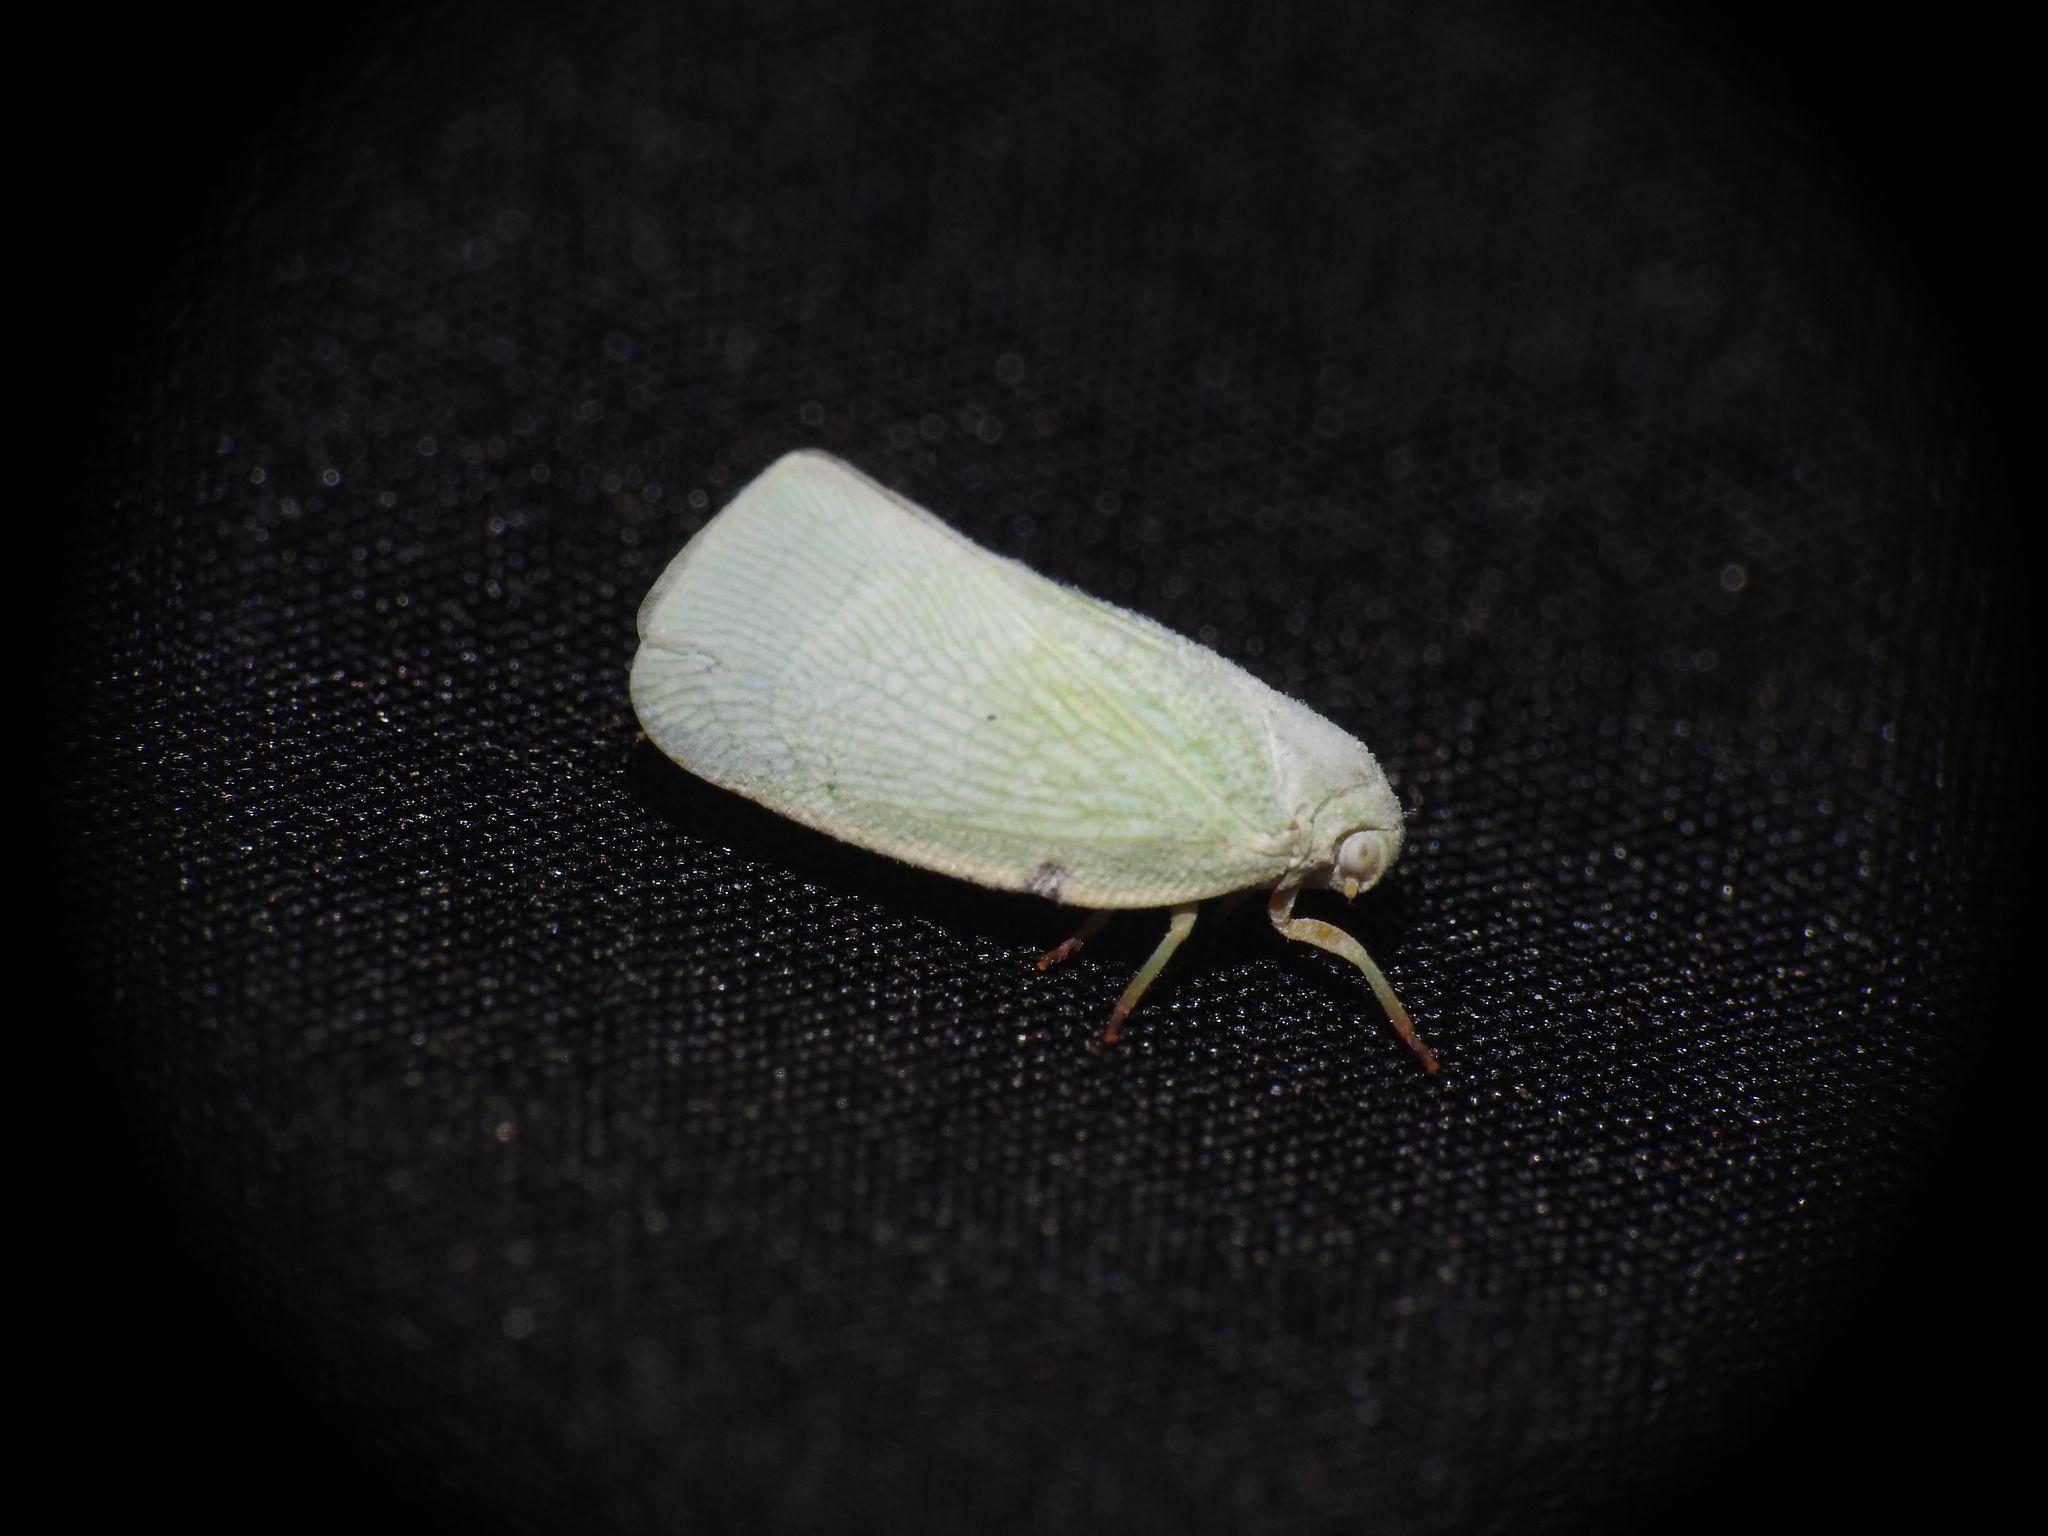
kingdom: Animalia
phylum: Arthropoda
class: Insecta
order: Hemiptera
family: Flatidae
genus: Flatormenis
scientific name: Flatormenis proxima
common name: Northern flatid planthopper
